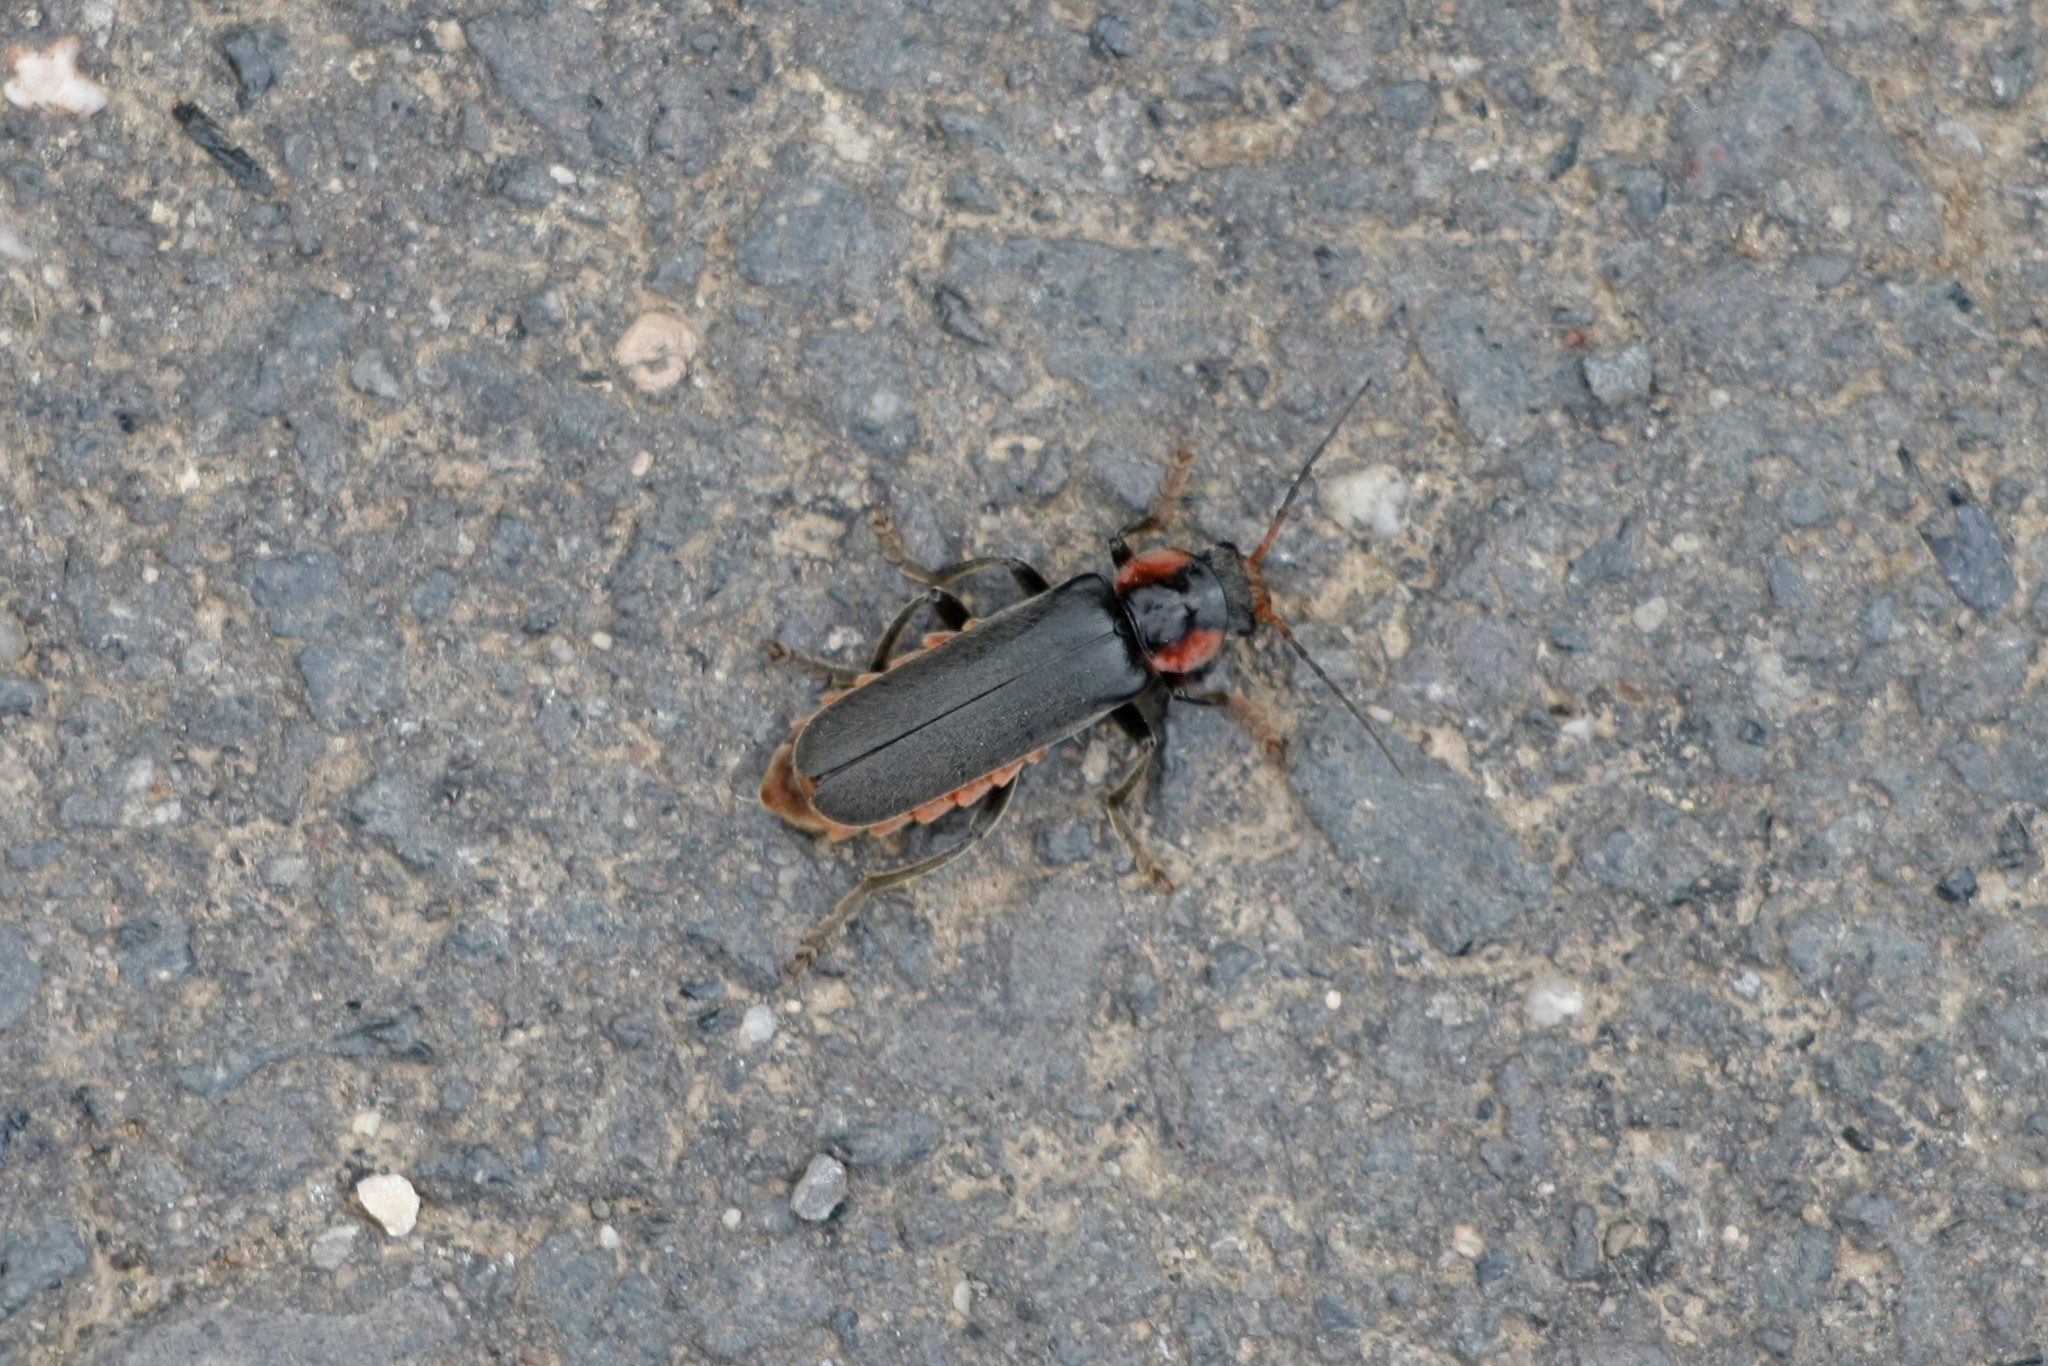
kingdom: Animalia
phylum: Arthropoda
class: Insecta
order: Coleoptera
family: Cantharidae
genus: Cantharis
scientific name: Cantharis fusca
